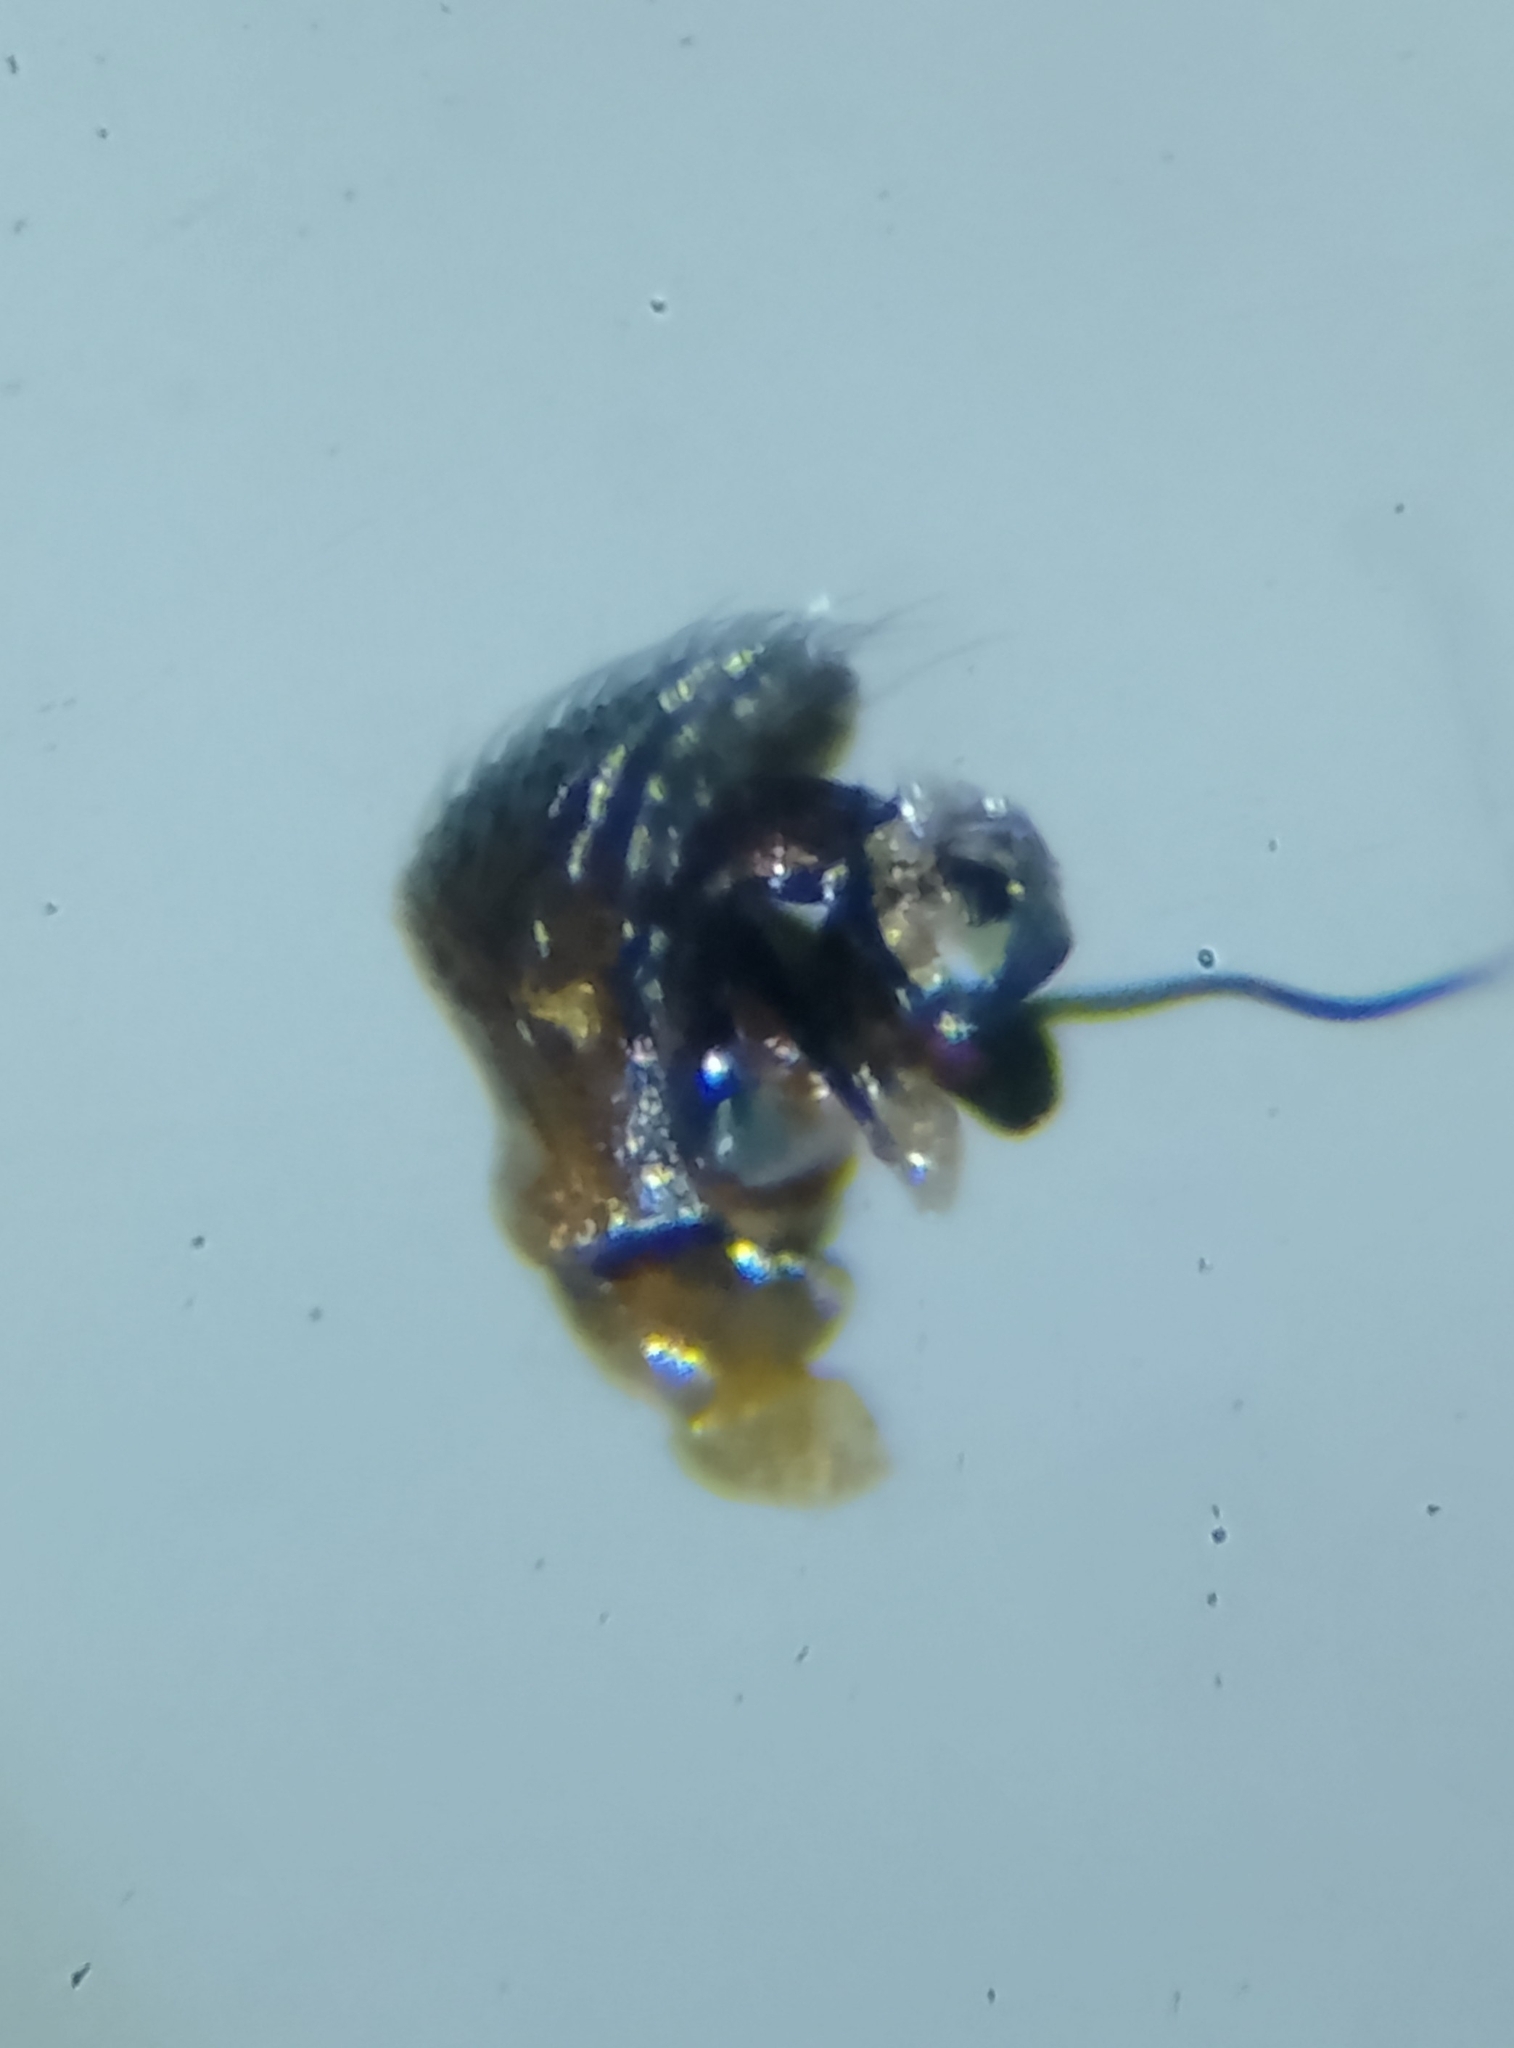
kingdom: Animalia
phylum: Arthropoda
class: Arachnida
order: Araneae
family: Linyphiidae
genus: Silometopus
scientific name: Silometopus reussi
